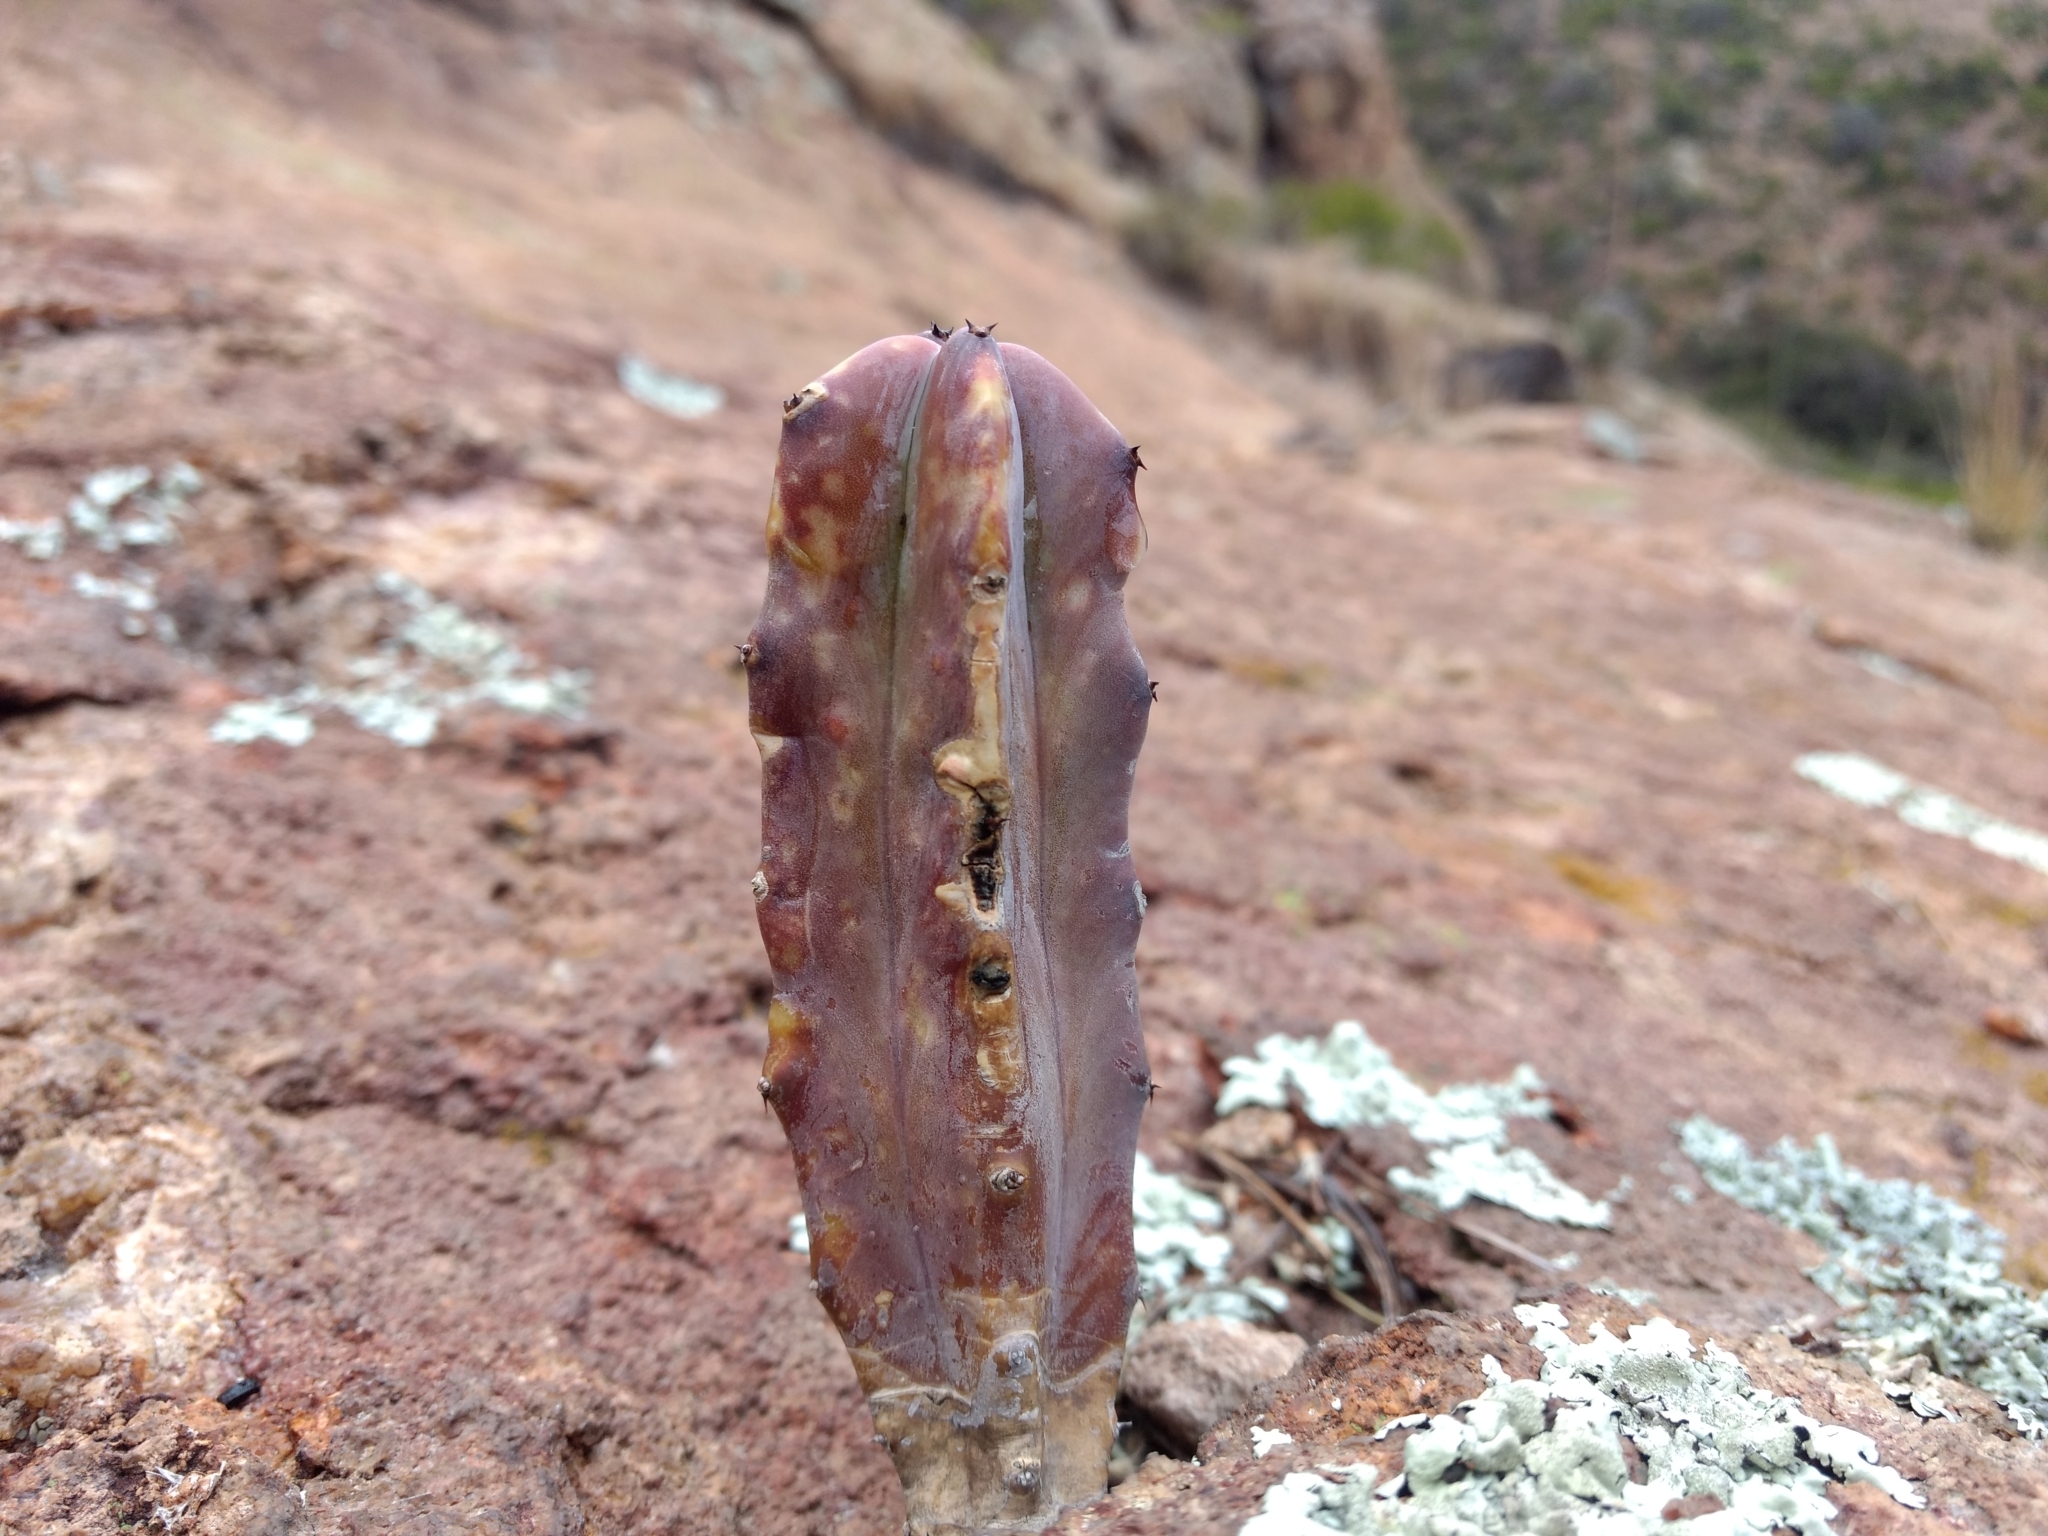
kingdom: Plantae
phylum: Tracheophyta
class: Magnoliopsida
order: Caryophyllales
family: Cactaceae
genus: Myrtillocactus
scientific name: Myrtillocactus geometrizans
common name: Bilberry cactus
